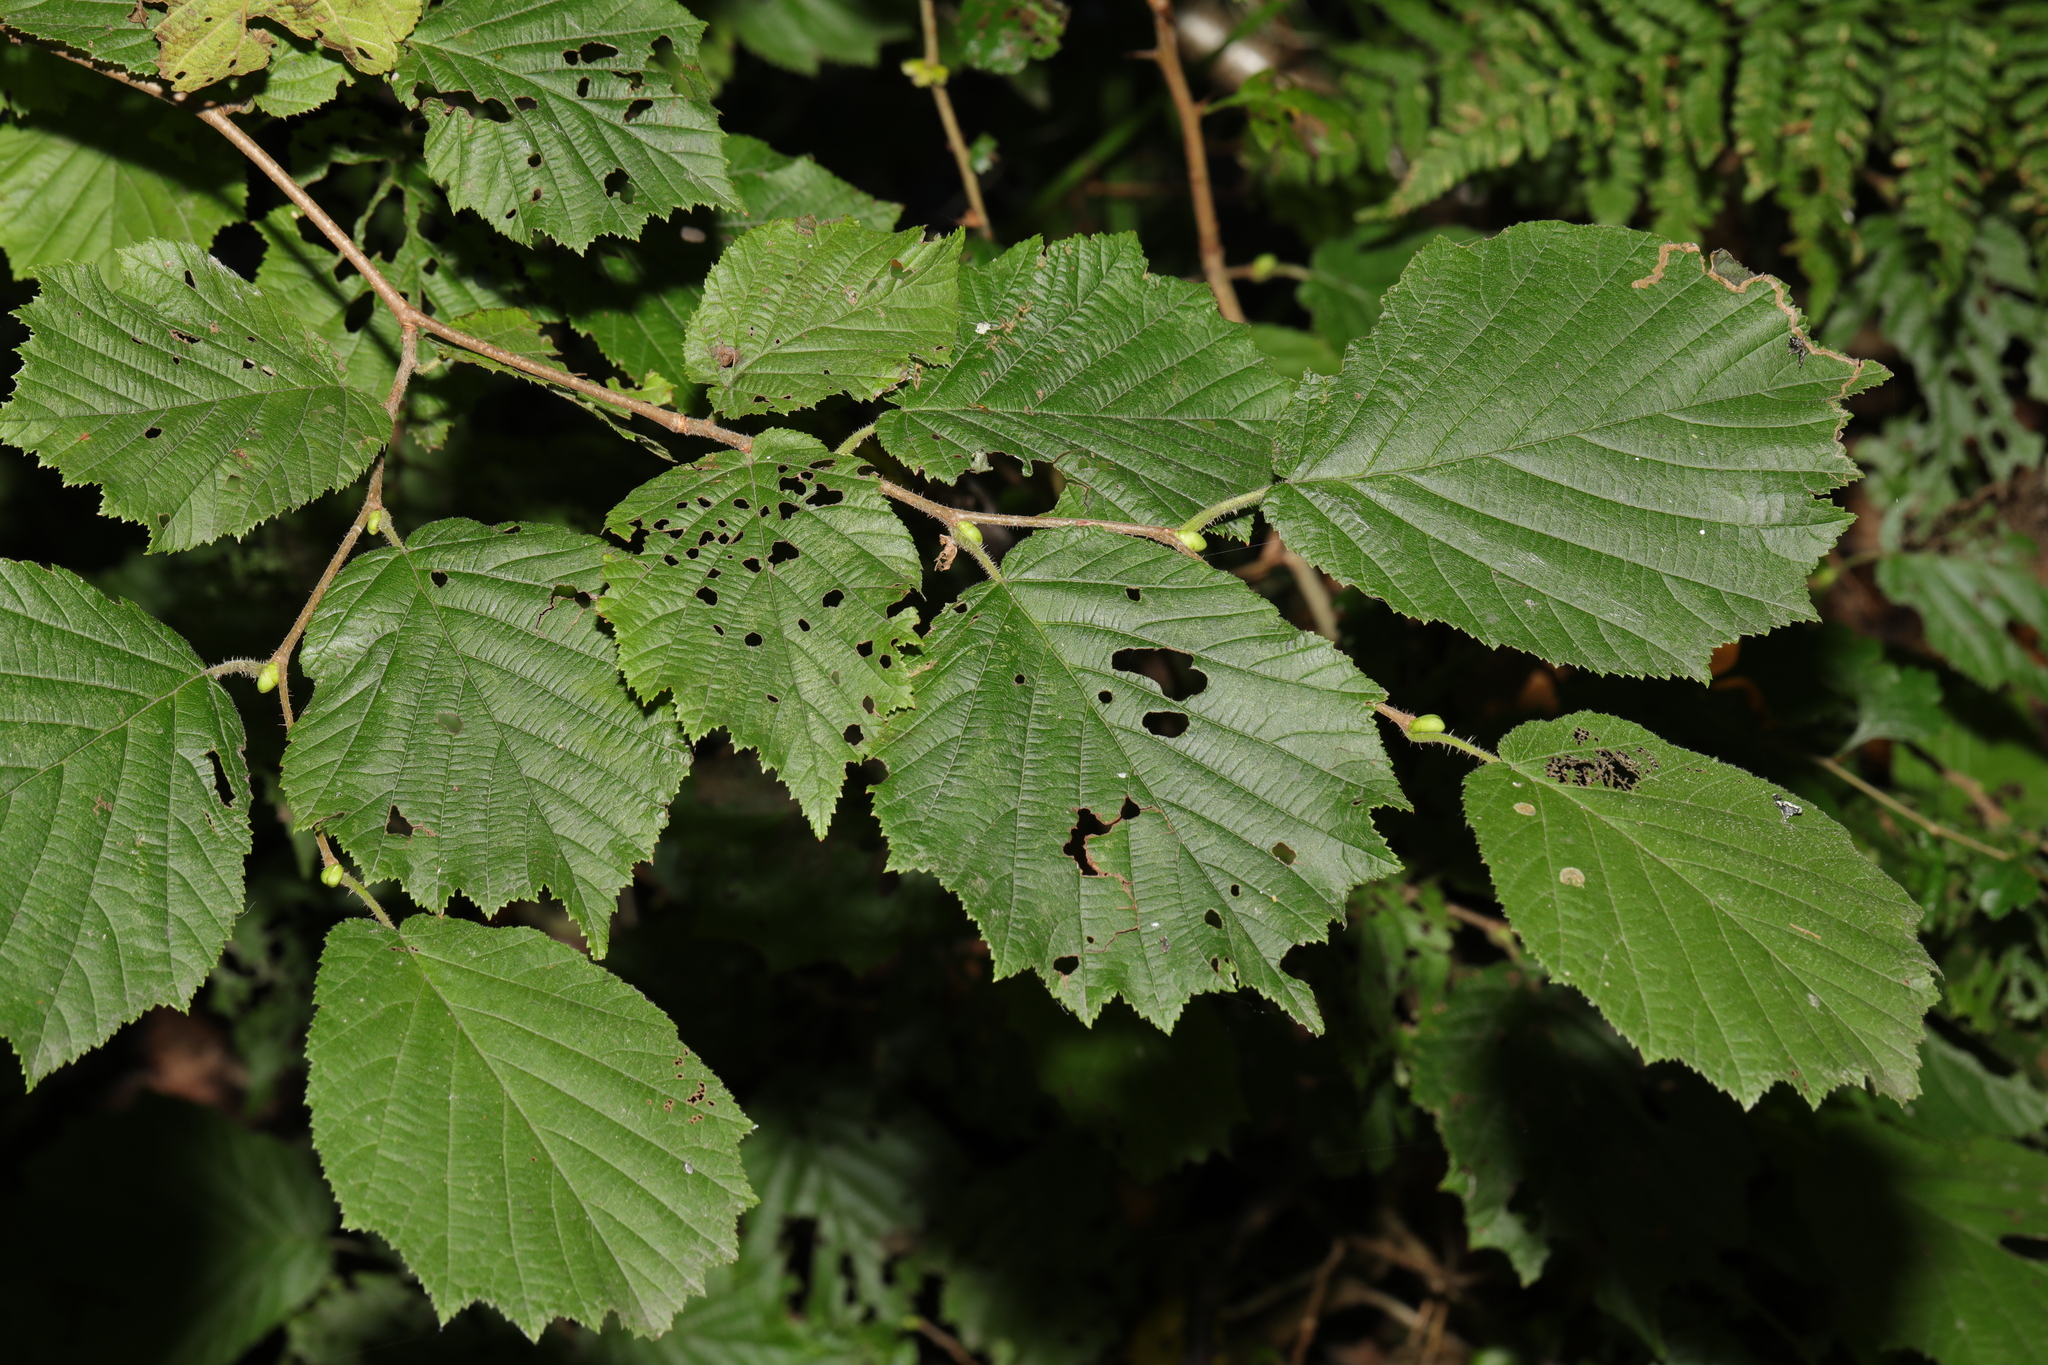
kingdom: Plantae
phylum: Tracheophyta
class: Magnoliopsida
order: Fagales
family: Betulaceae
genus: Corylus
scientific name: Corylus avellana
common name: European hazel
